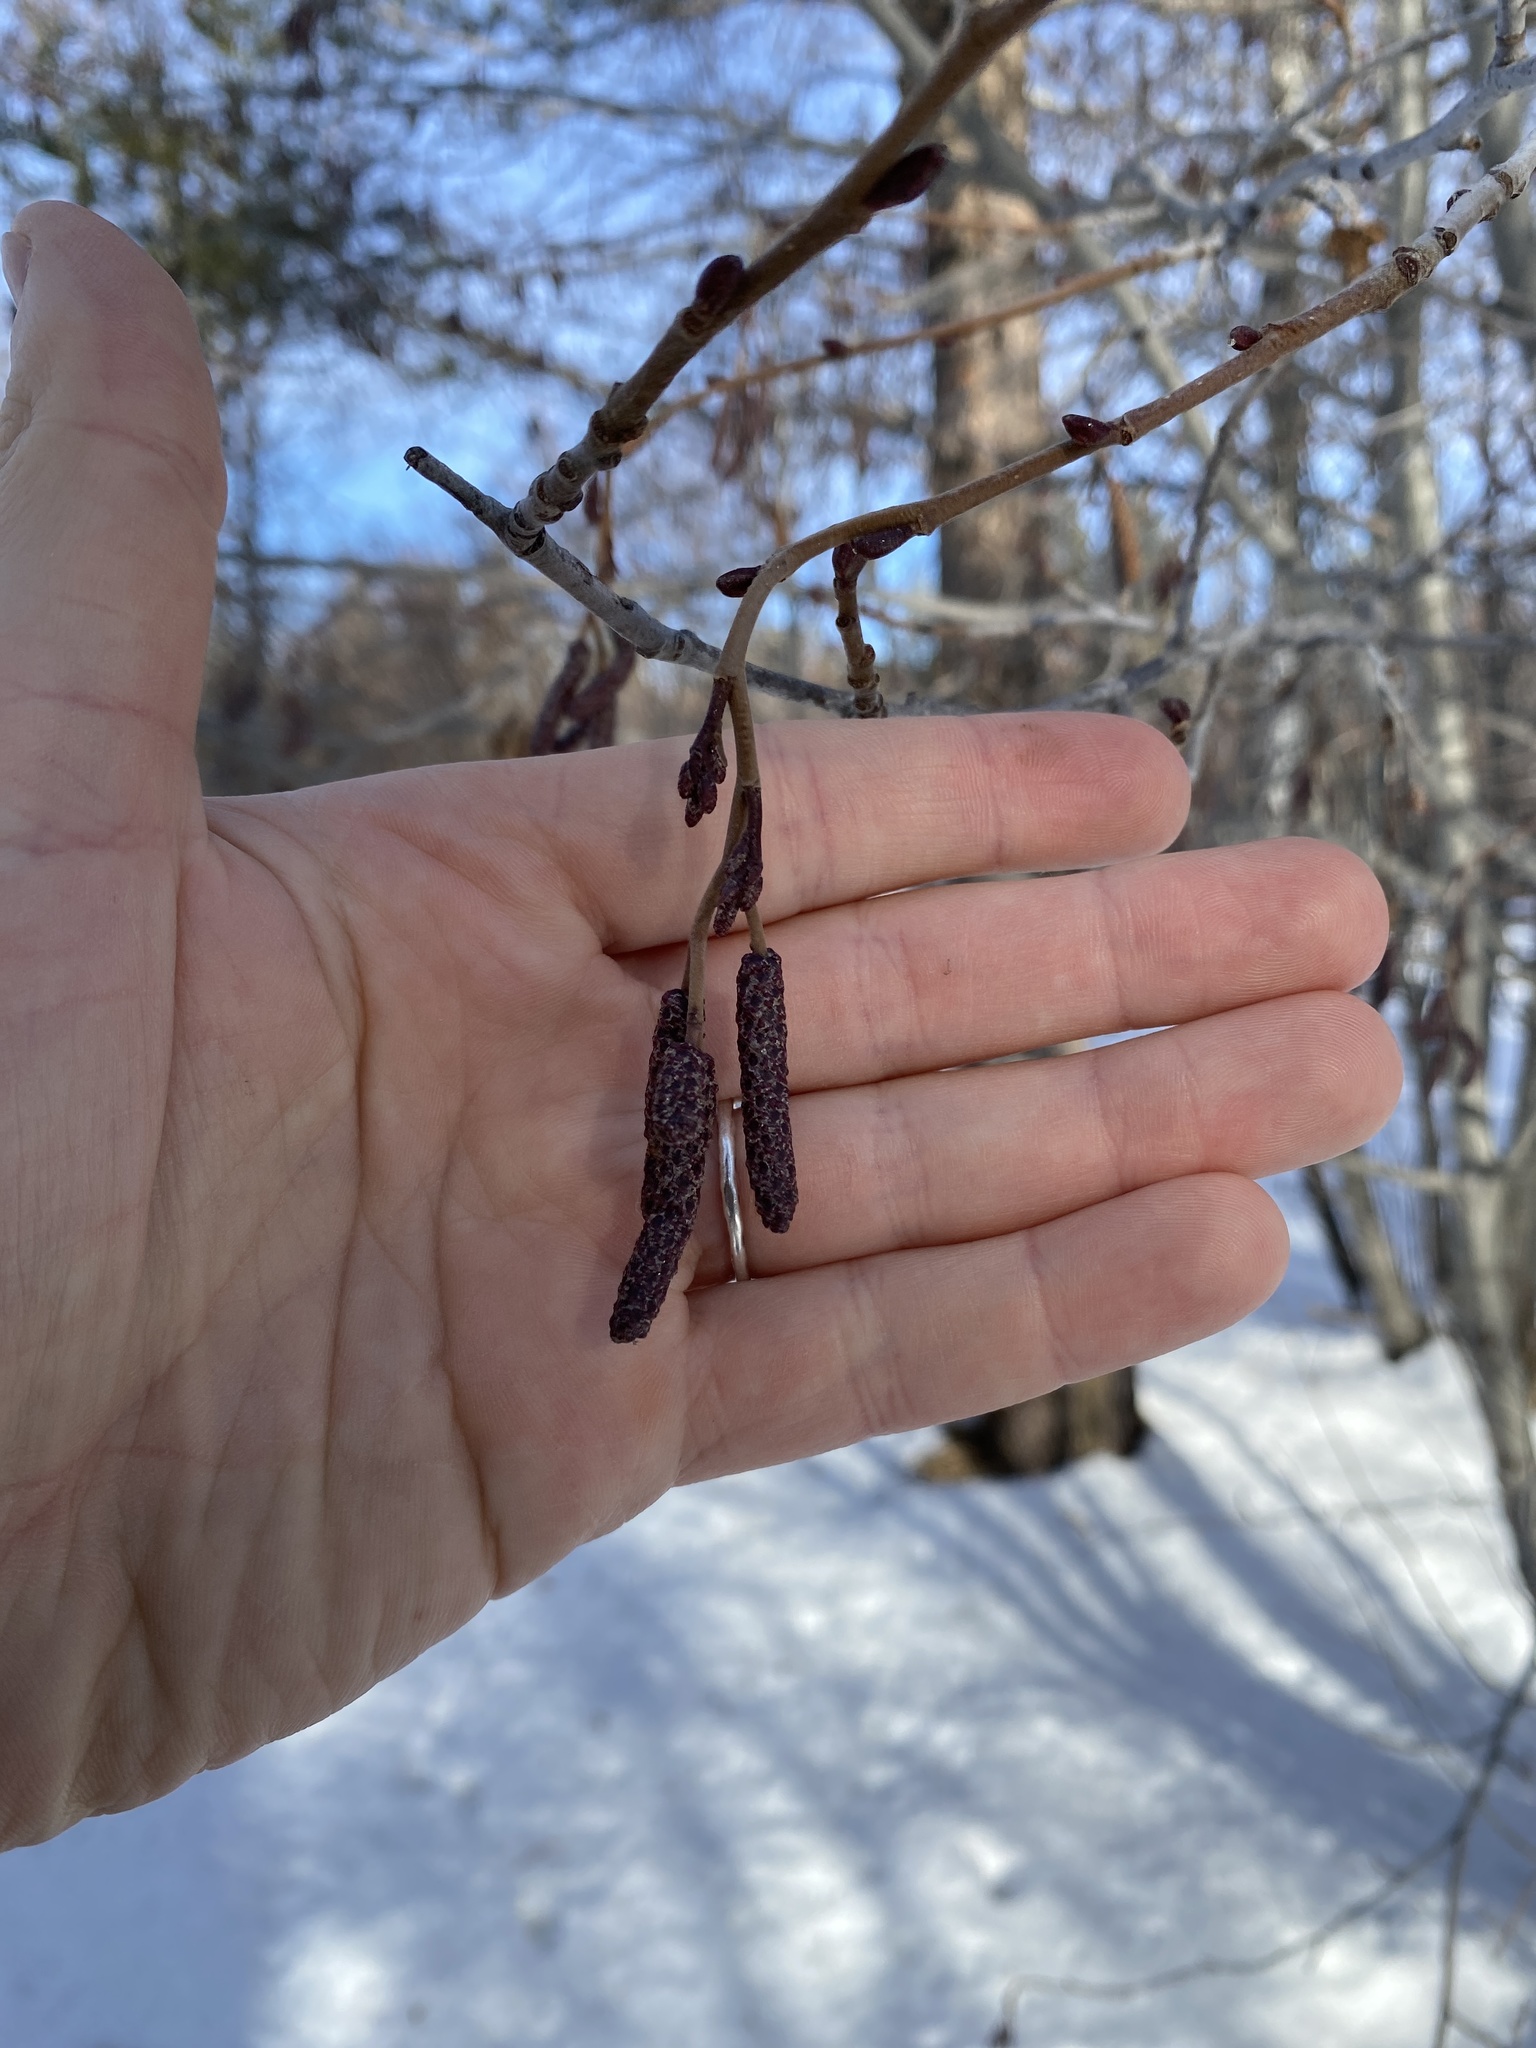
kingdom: Plantae
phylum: Tracheophyta
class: Magnoliopsida
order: Fagales
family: Betulaceae
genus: Alnus
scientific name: Alnus incana
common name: Grey alder
